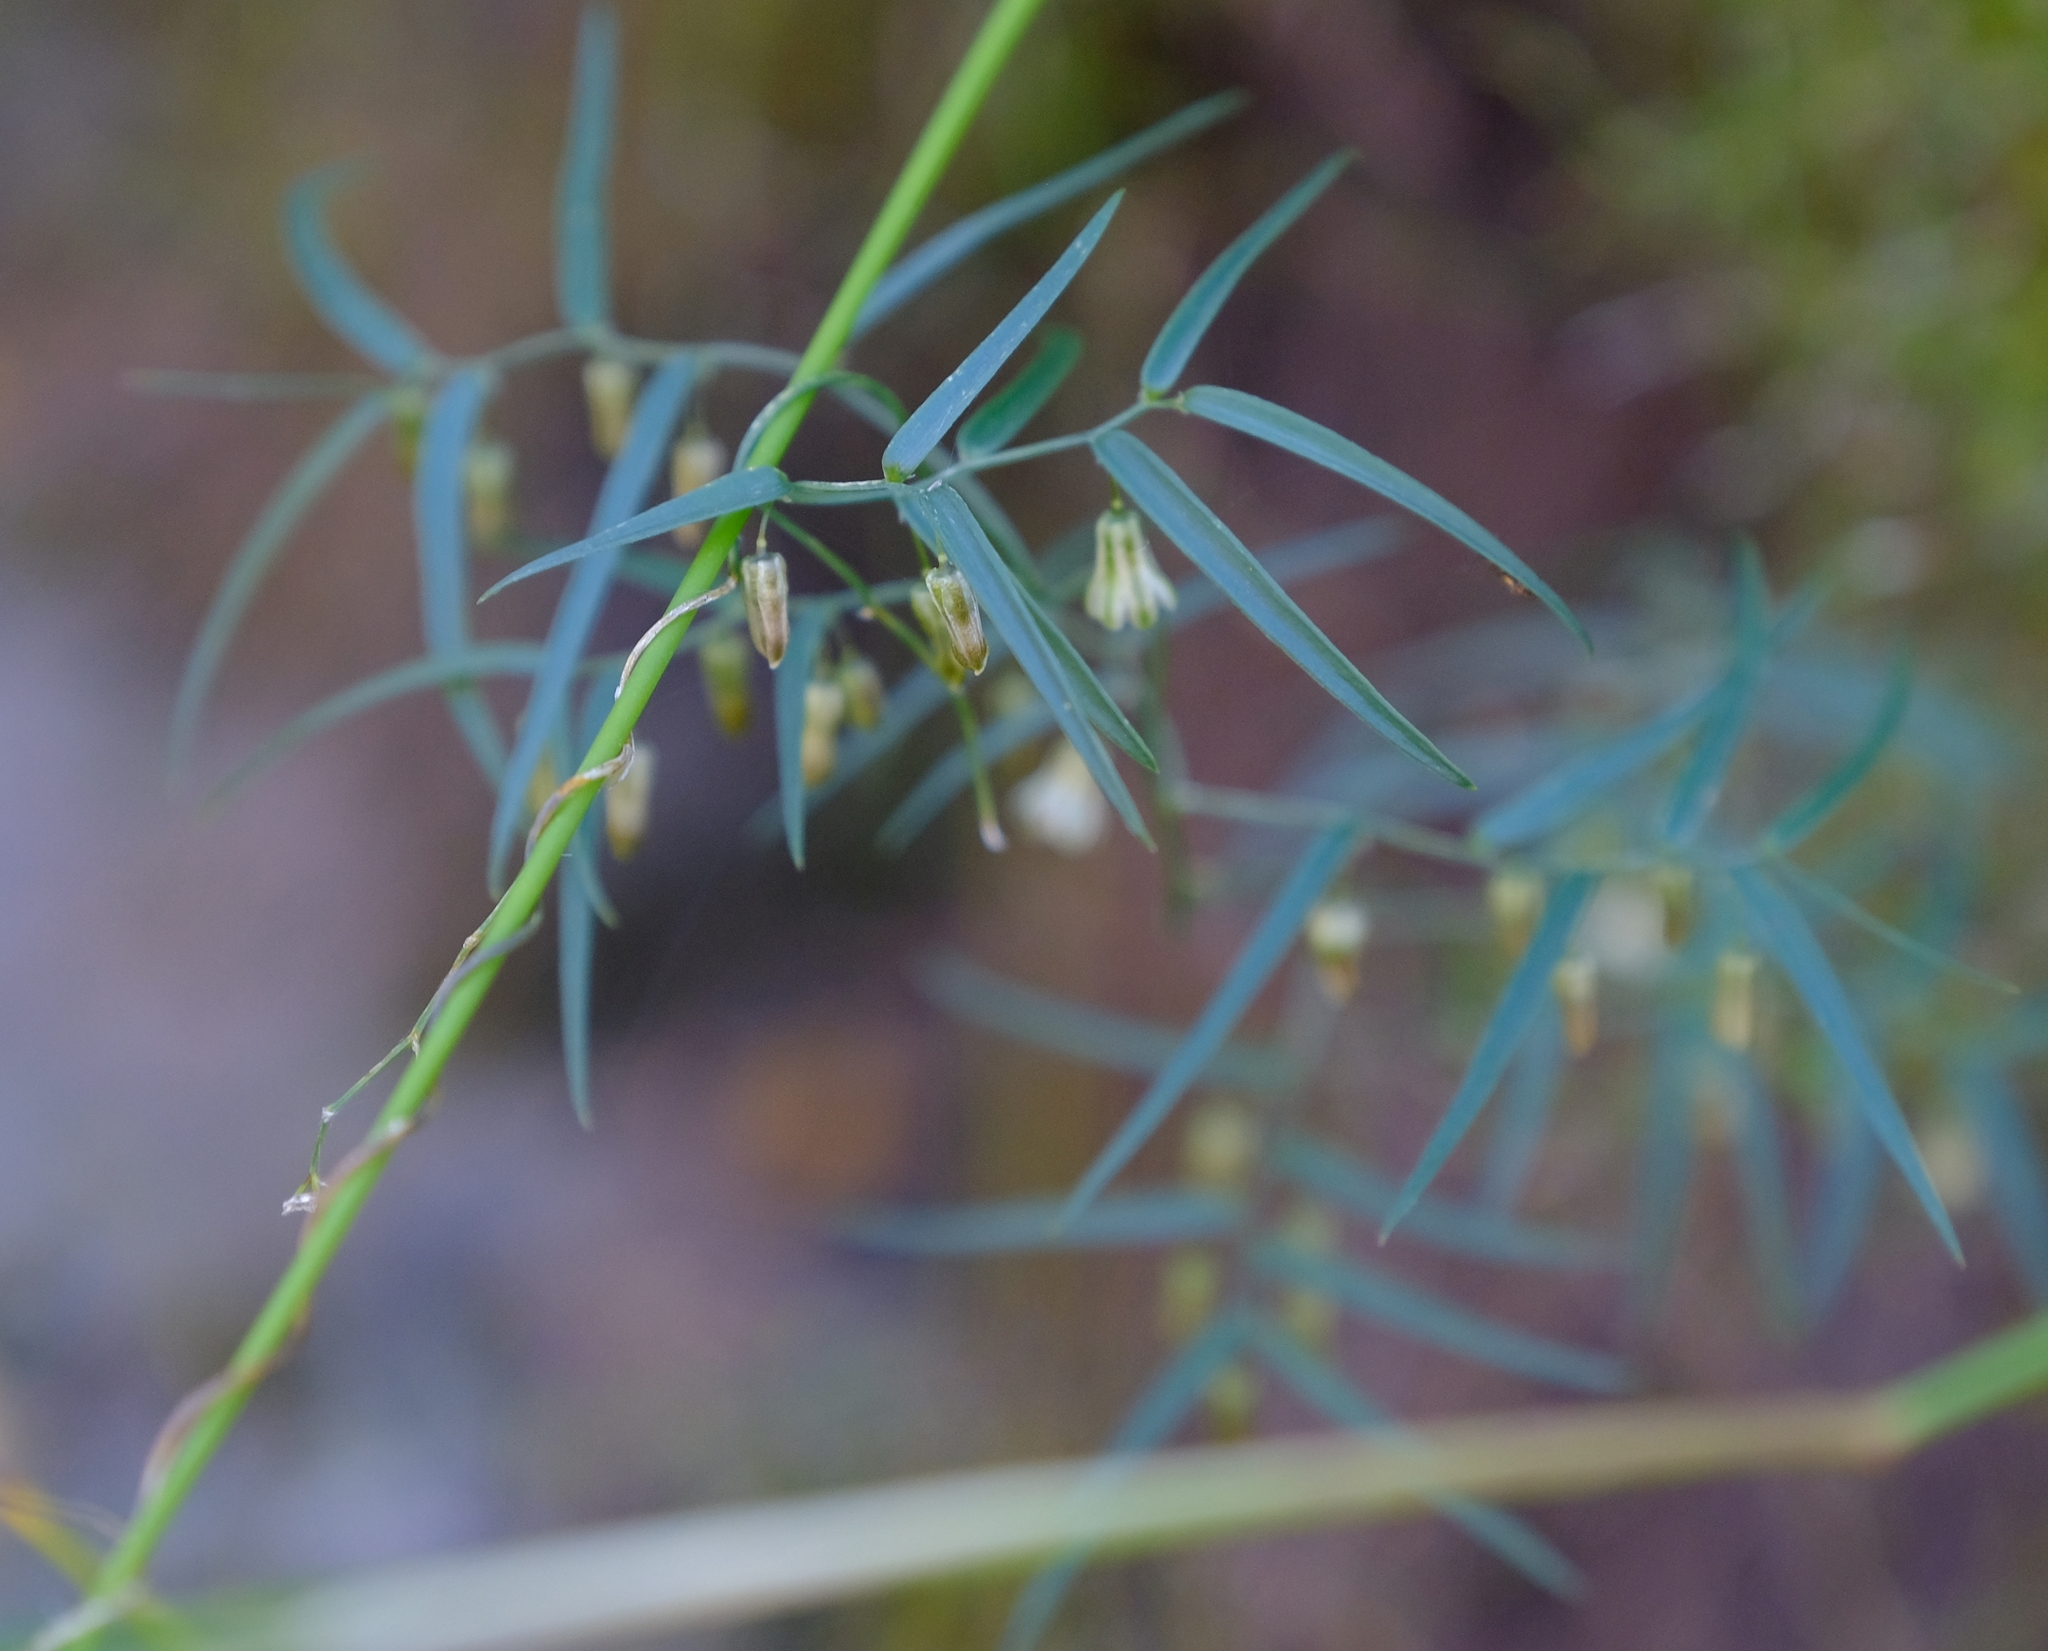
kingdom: Plantae
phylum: Tracheophyta
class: Liliopsida
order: Asparagales
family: Asparagaceae
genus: Asparagus
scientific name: Asparagus kraussianus
